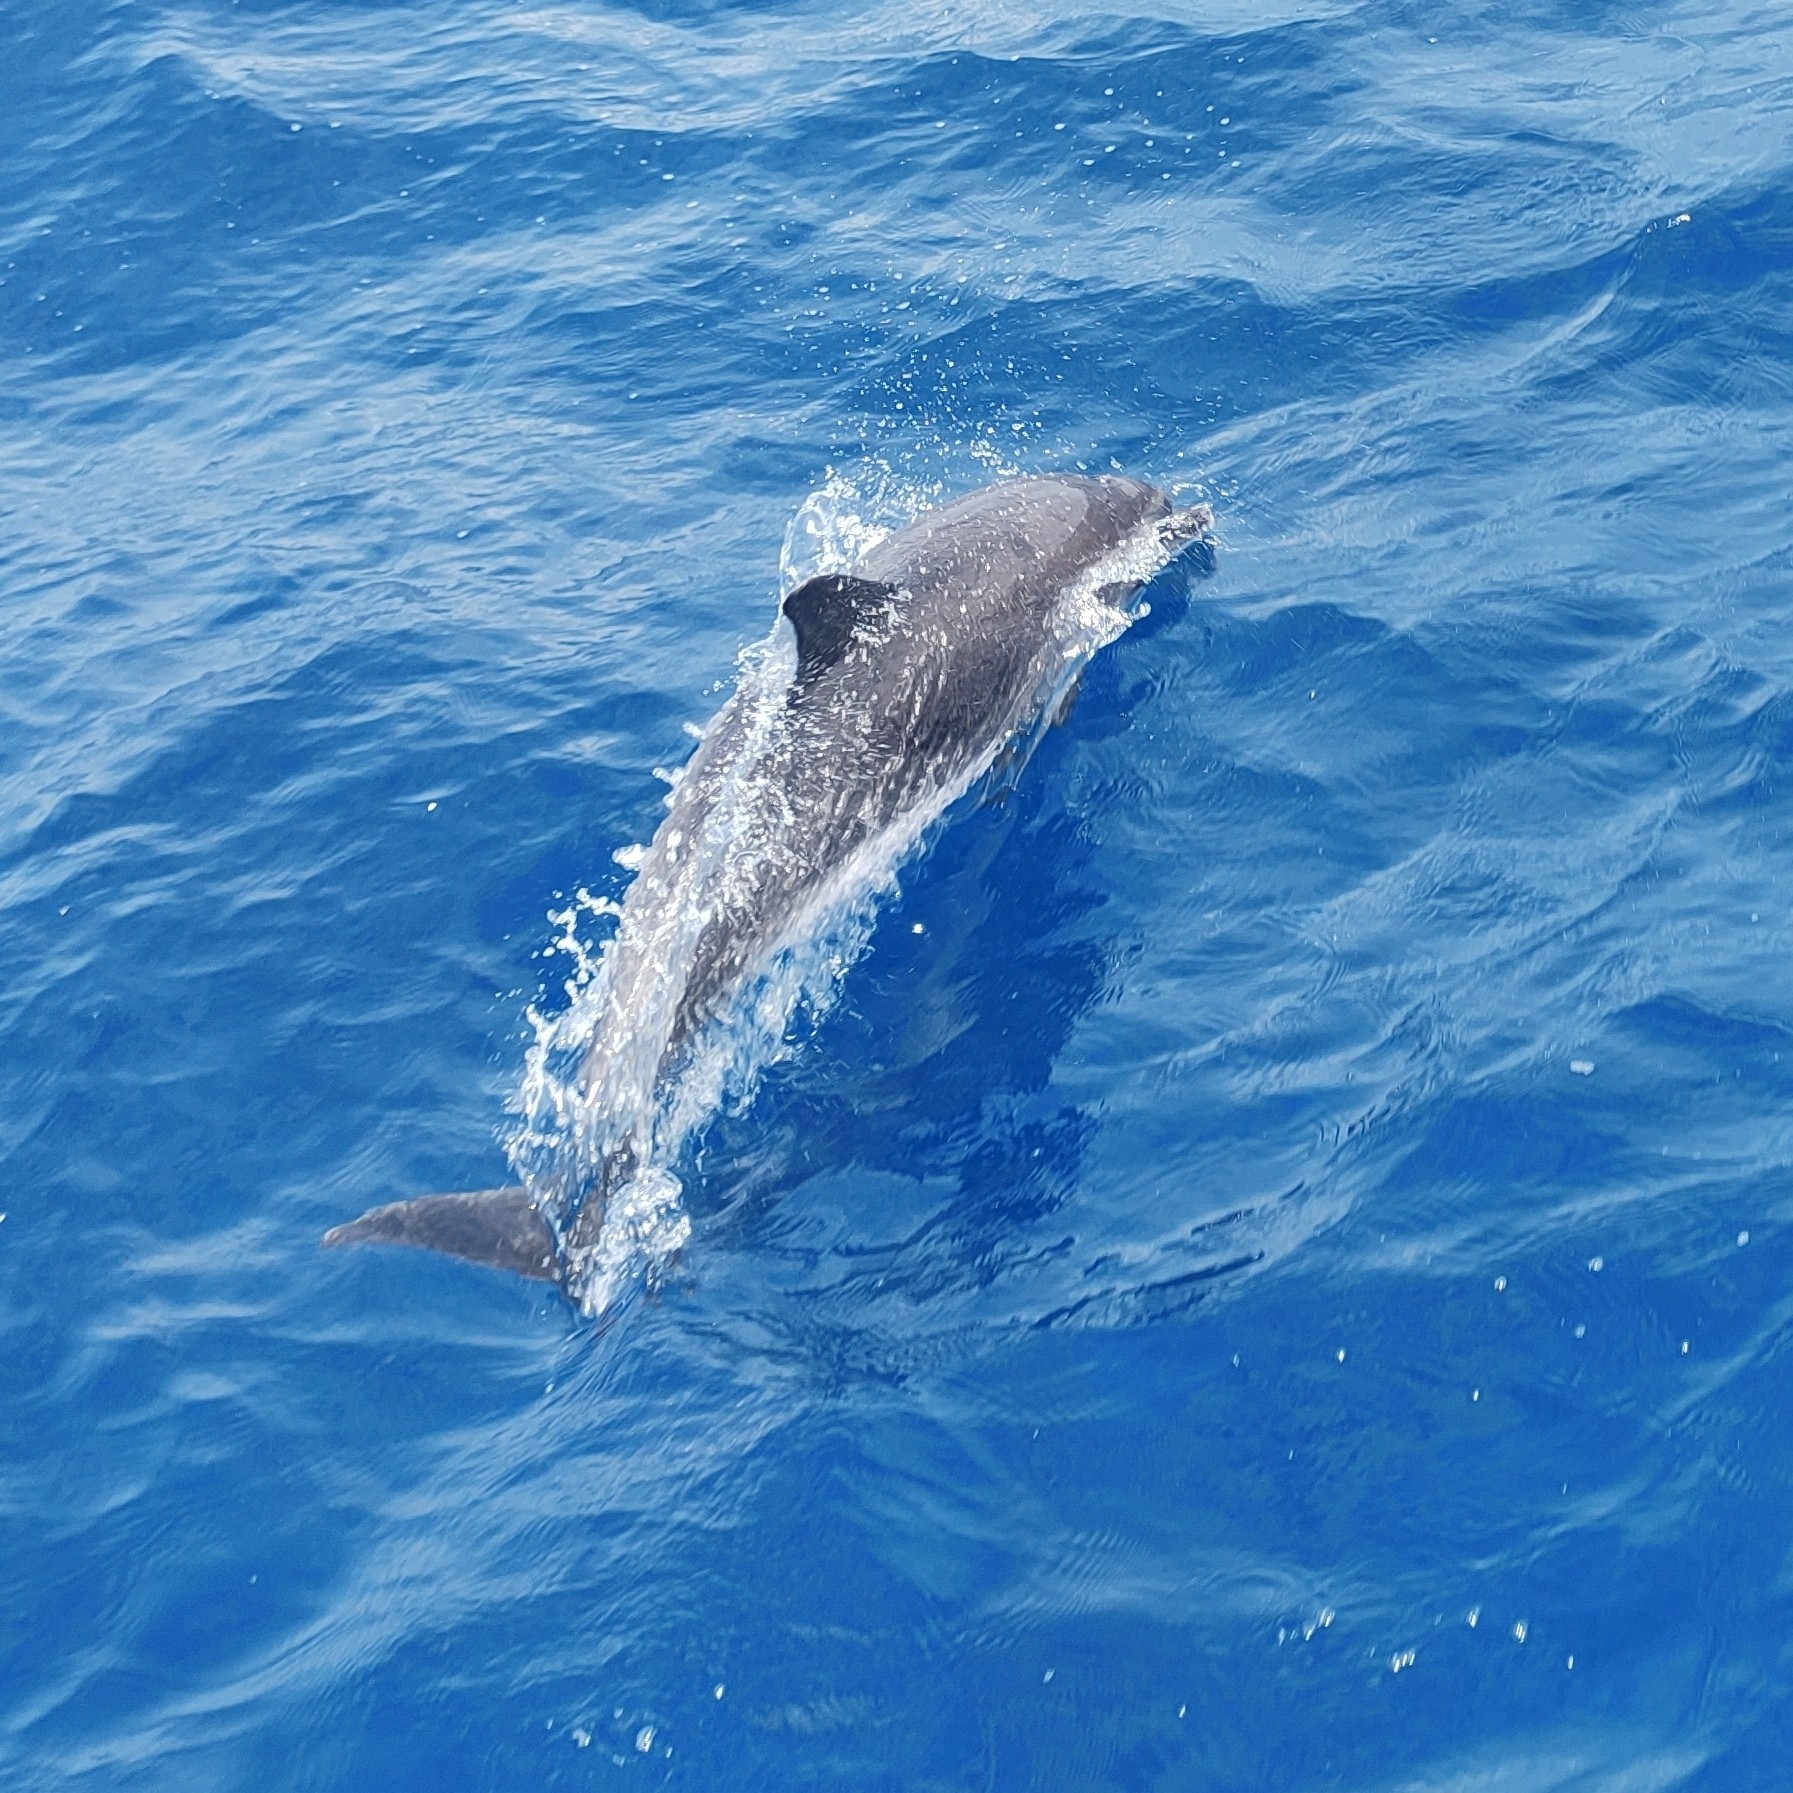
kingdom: Animalia
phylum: Chordata
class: Mammalia
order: Cetacea
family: Delphinidae
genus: Stenella
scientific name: Stenella frontalis
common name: Atlantic spotted dolphin
